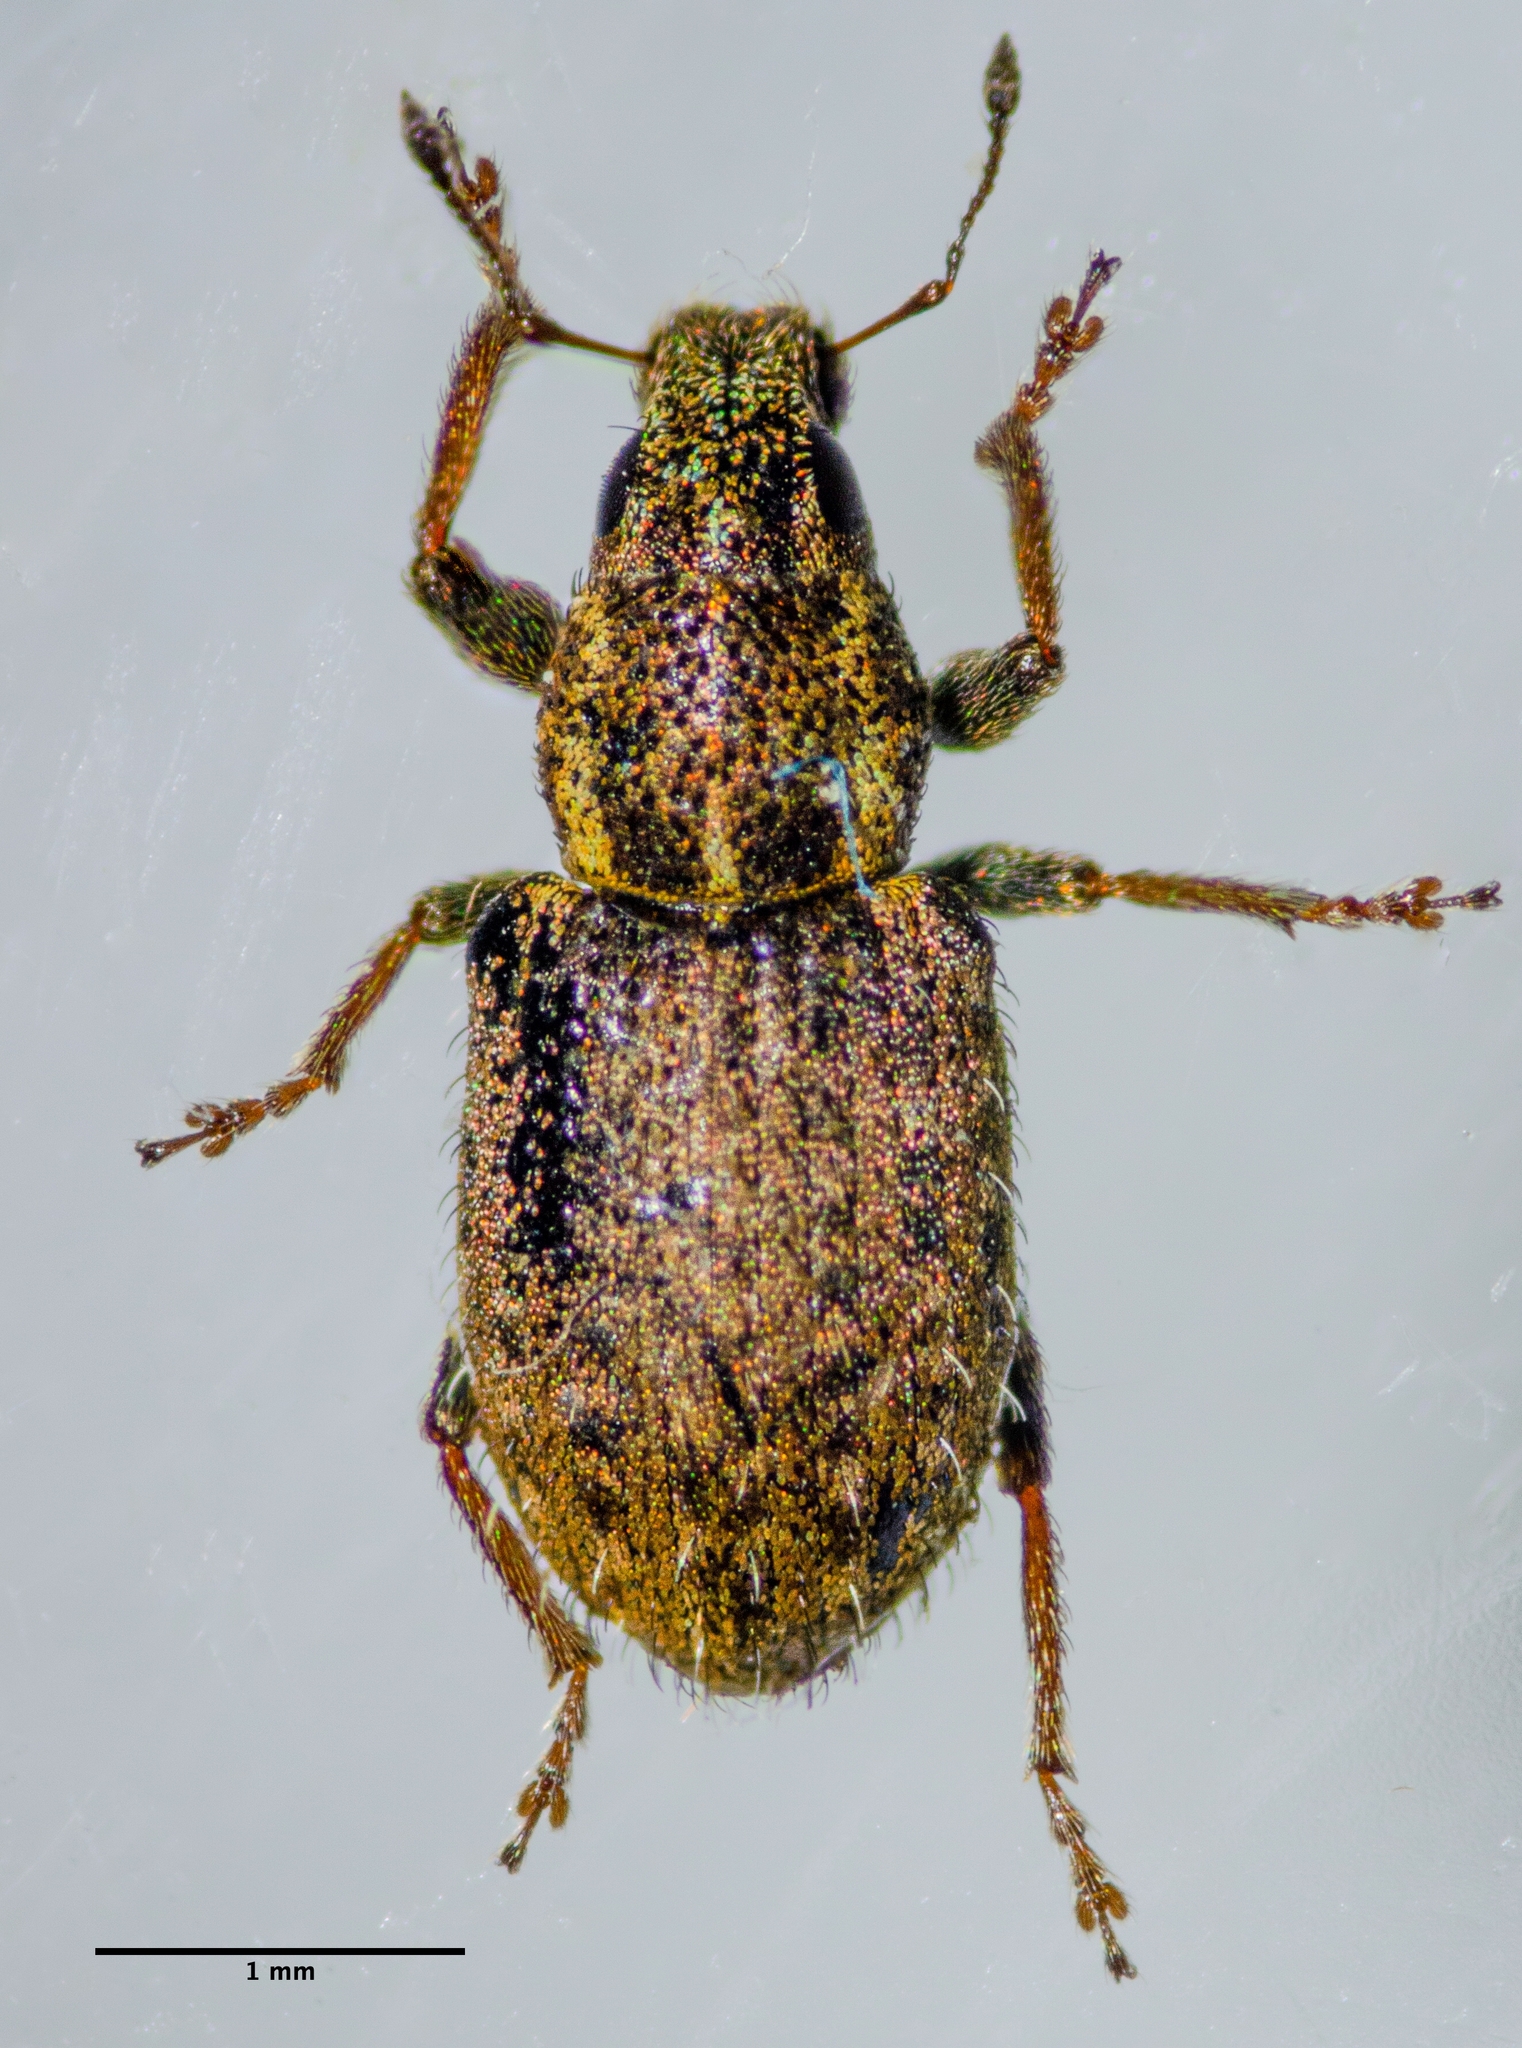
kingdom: Animalia
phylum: Arthropoda
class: Insecta
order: Coleoptera
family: Curculionidae
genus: Sitona
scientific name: Sitona hispidulus
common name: Clover weevil
